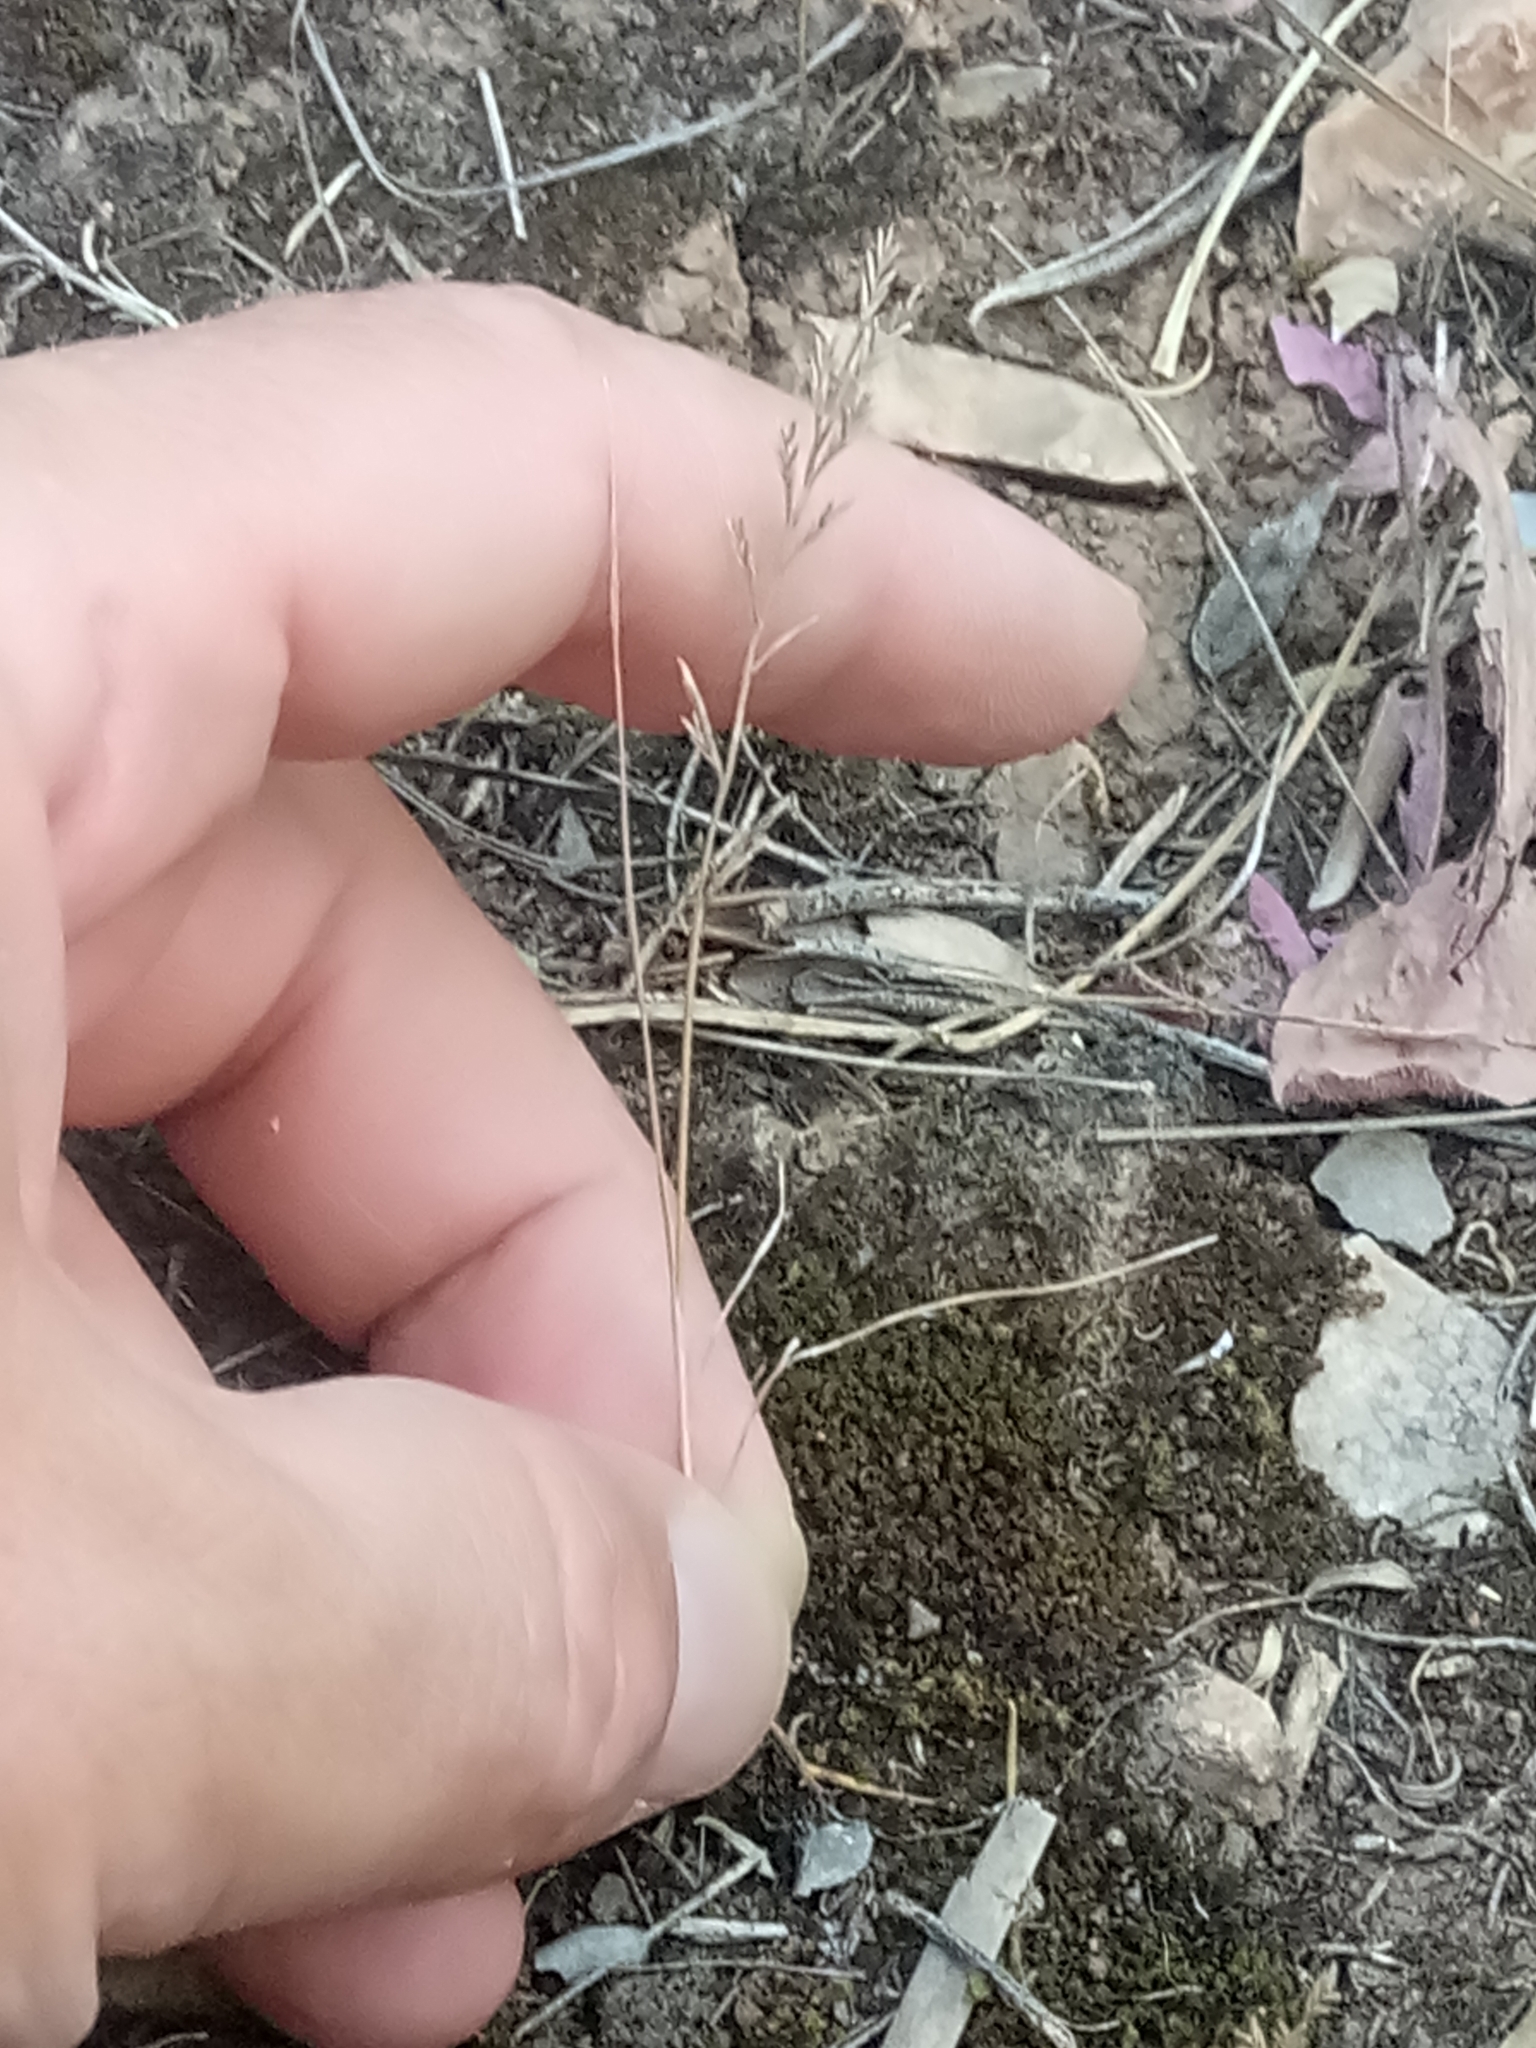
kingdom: Plantae
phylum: Tracheophyta
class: Liliopsida
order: Poales
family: Poaceae
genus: Catapodium
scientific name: Catapodium rigidum
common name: Fern-grass
